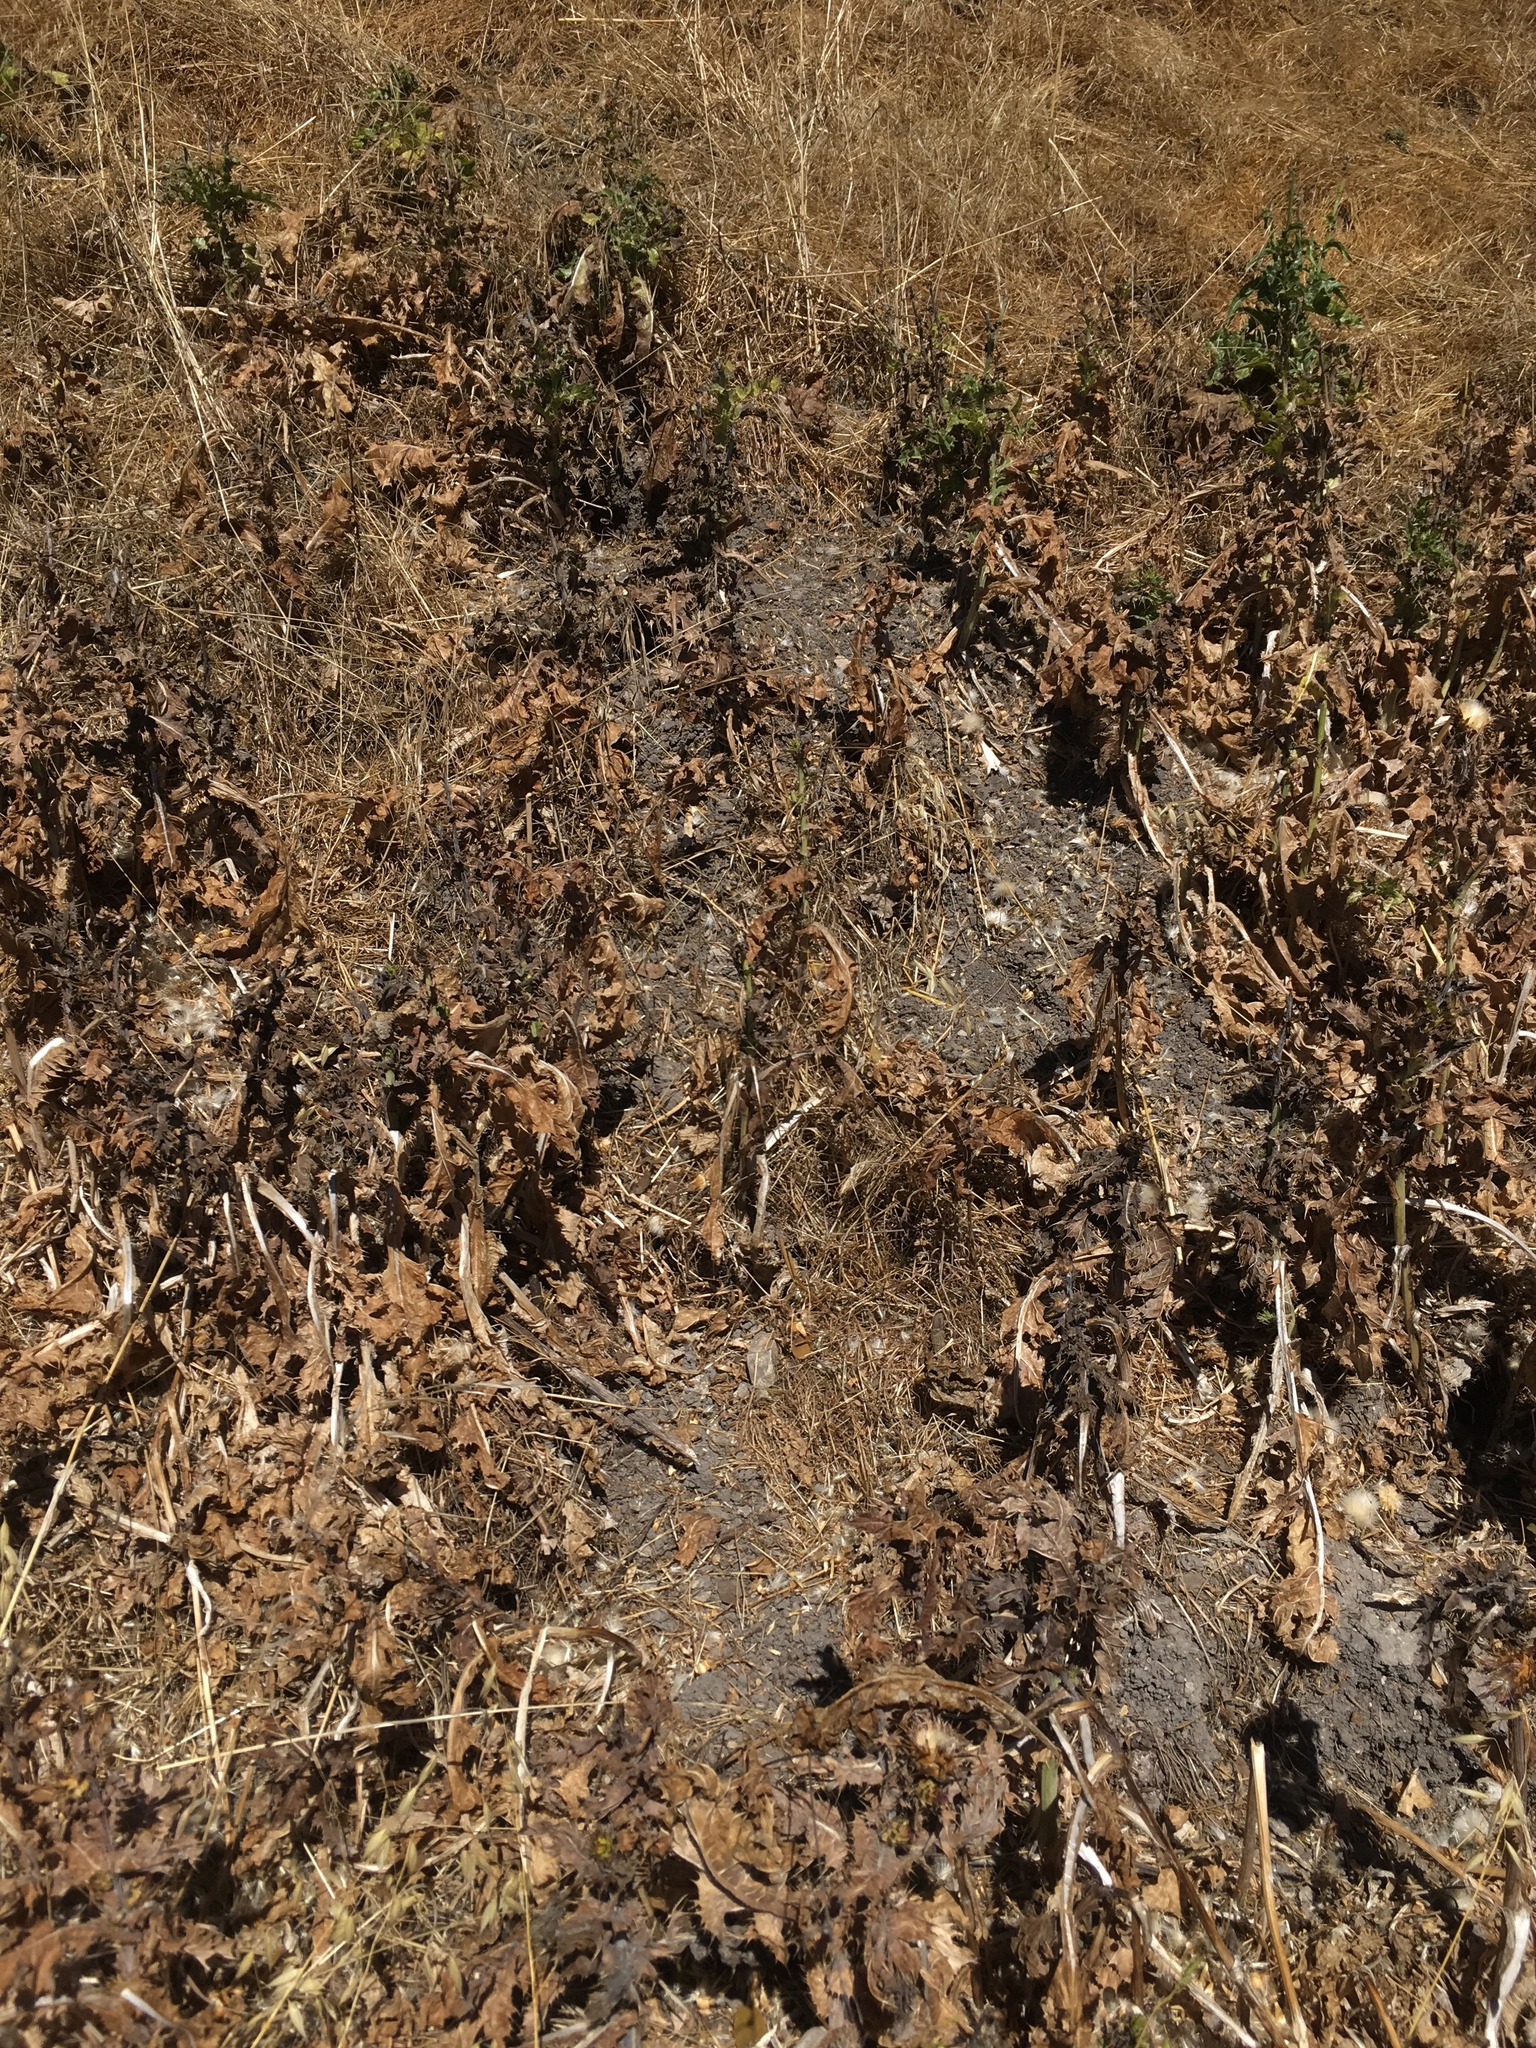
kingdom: Plantae
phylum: Tracheophyta
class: Magnoliopsida
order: Asterales
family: Asteraceae
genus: Silybum
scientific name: Silybum marianum
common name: Milk thistle
